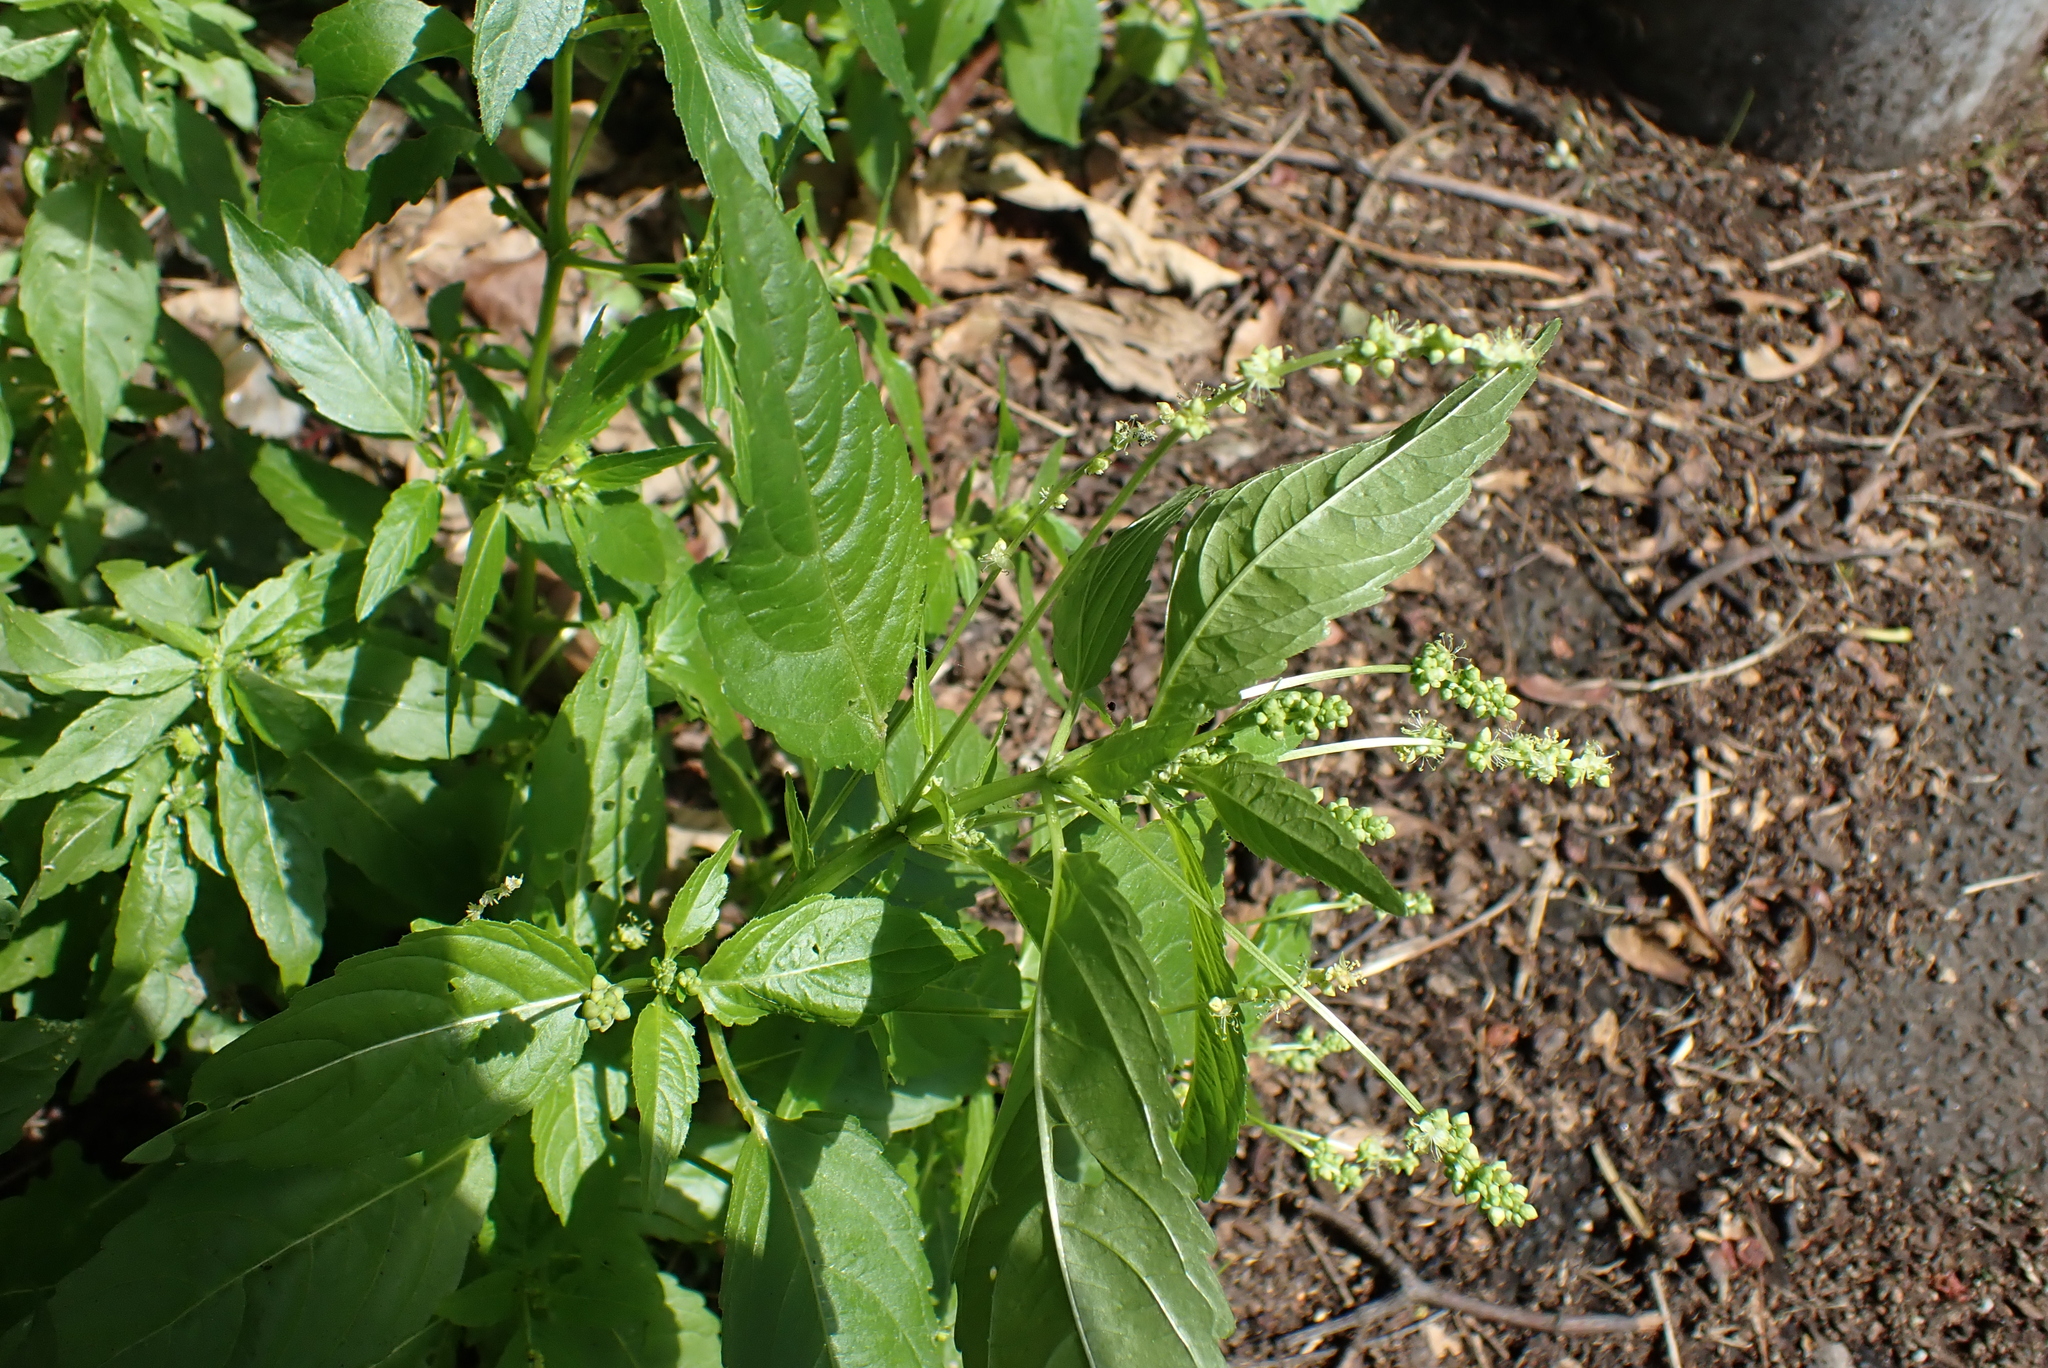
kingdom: Plantae
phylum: Tracheophyta
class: Magnoliopsida
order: Malpighiales
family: Euphorbiaceae
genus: Mercurialis
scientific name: Mercurialis annua
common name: Annual mercury
